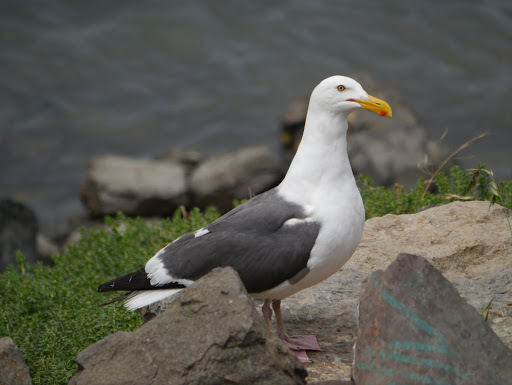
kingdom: Animalia
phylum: Chordata
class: Aves
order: Charadriiformes
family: Laridae
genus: Larus
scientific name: Larus occidentalis
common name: Western gull
